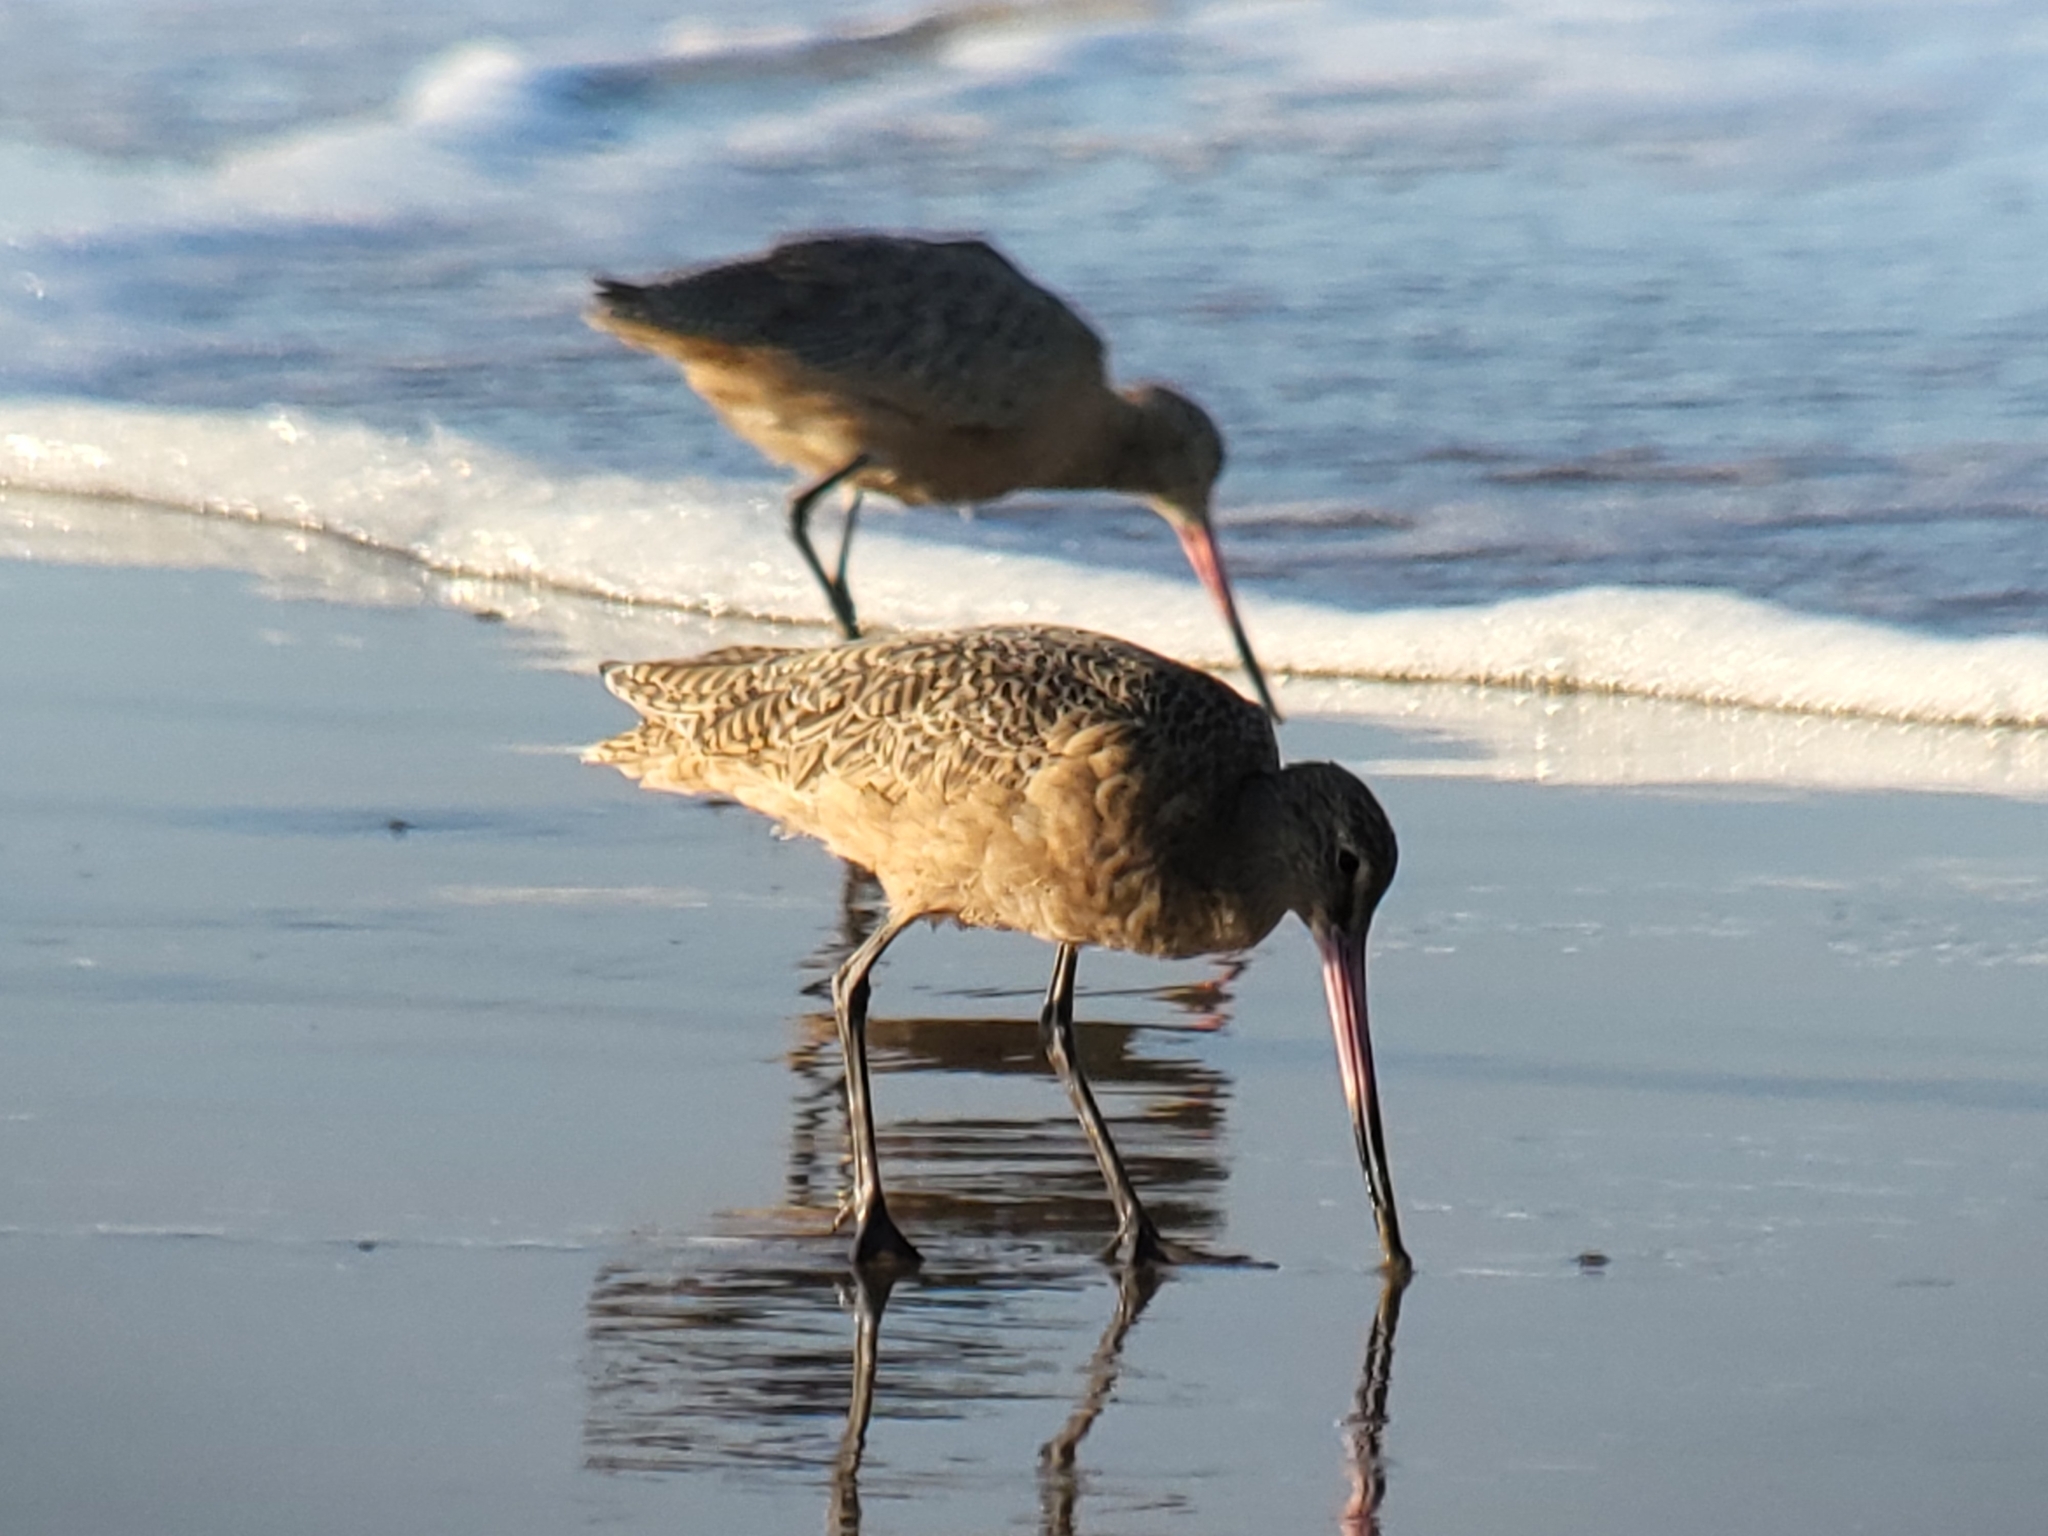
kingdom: Animalia
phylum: Chordata
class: Aves
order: Charadriiformes
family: Scolopacidae
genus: Limosa
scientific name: Limosa fedoa
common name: Marbled godwit
